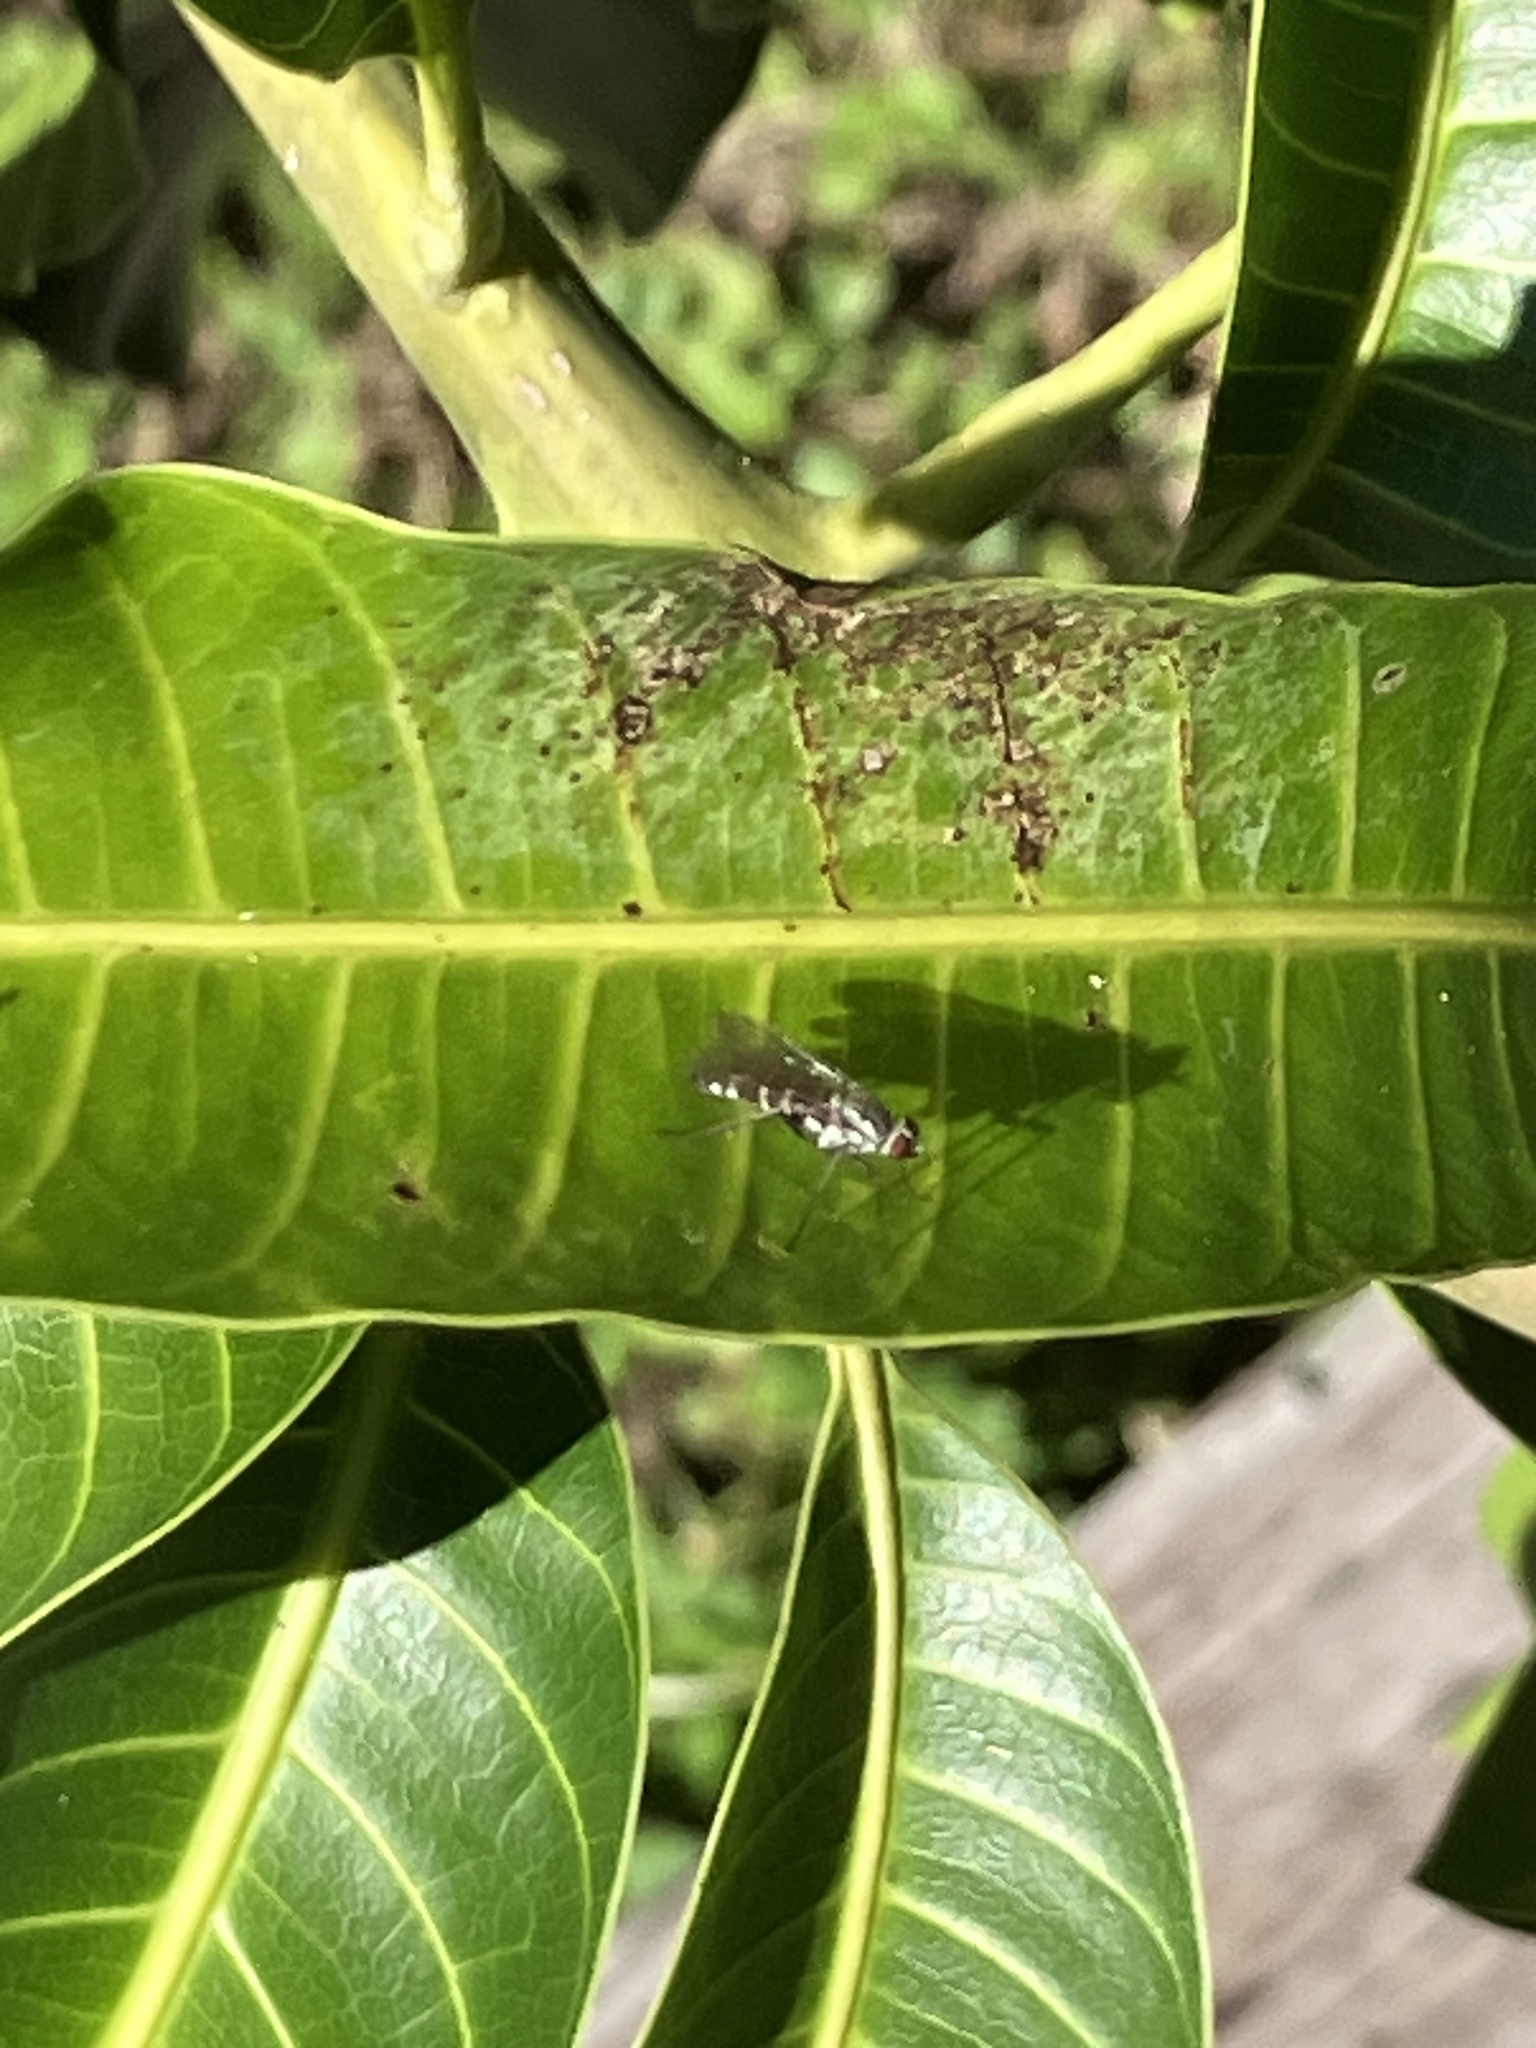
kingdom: Animalia
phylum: Arthropoda
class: Insecta
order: Diptera
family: Therevidae
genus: Penniverpa
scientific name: Penniverpa festina
